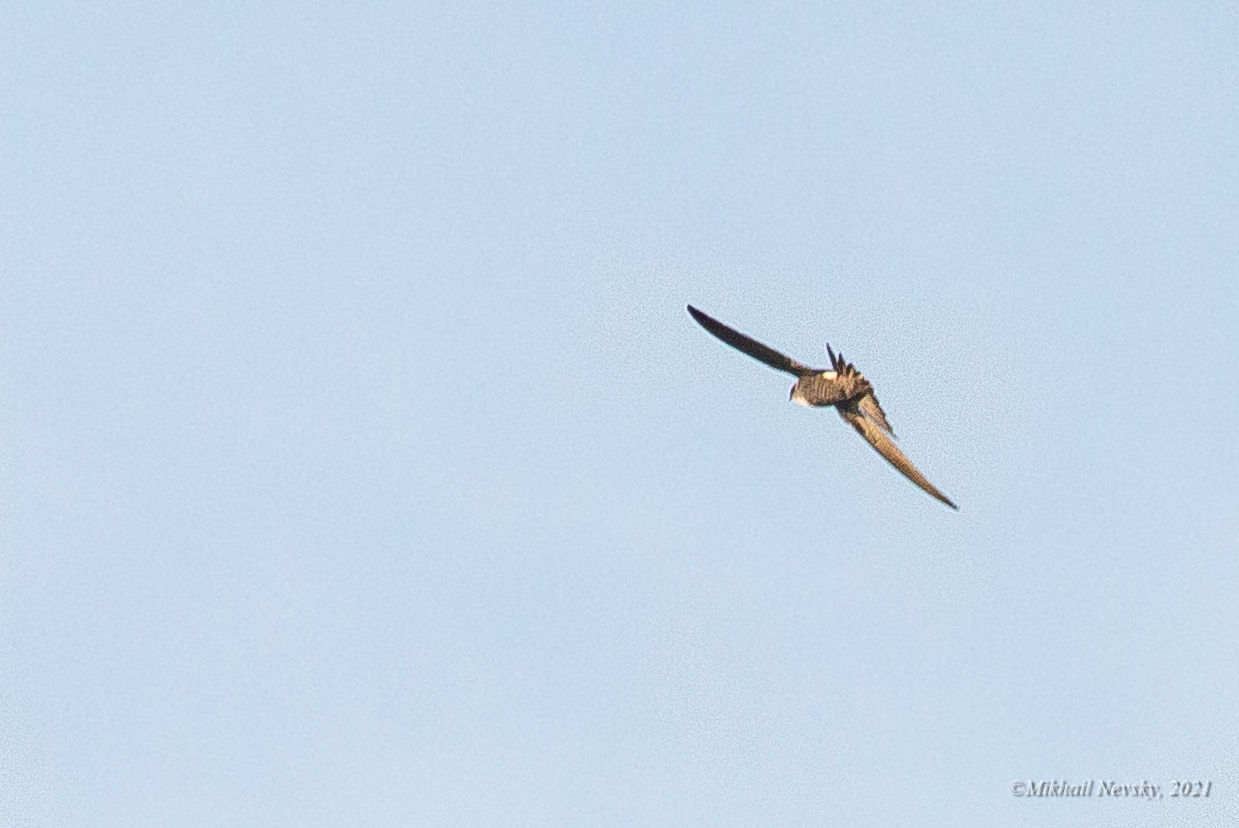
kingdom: Animalia
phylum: Chordata
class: Aves
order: Apodiformes
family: Apodidae
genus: Apus
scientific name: Apus pacificus
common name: Pacific swift
